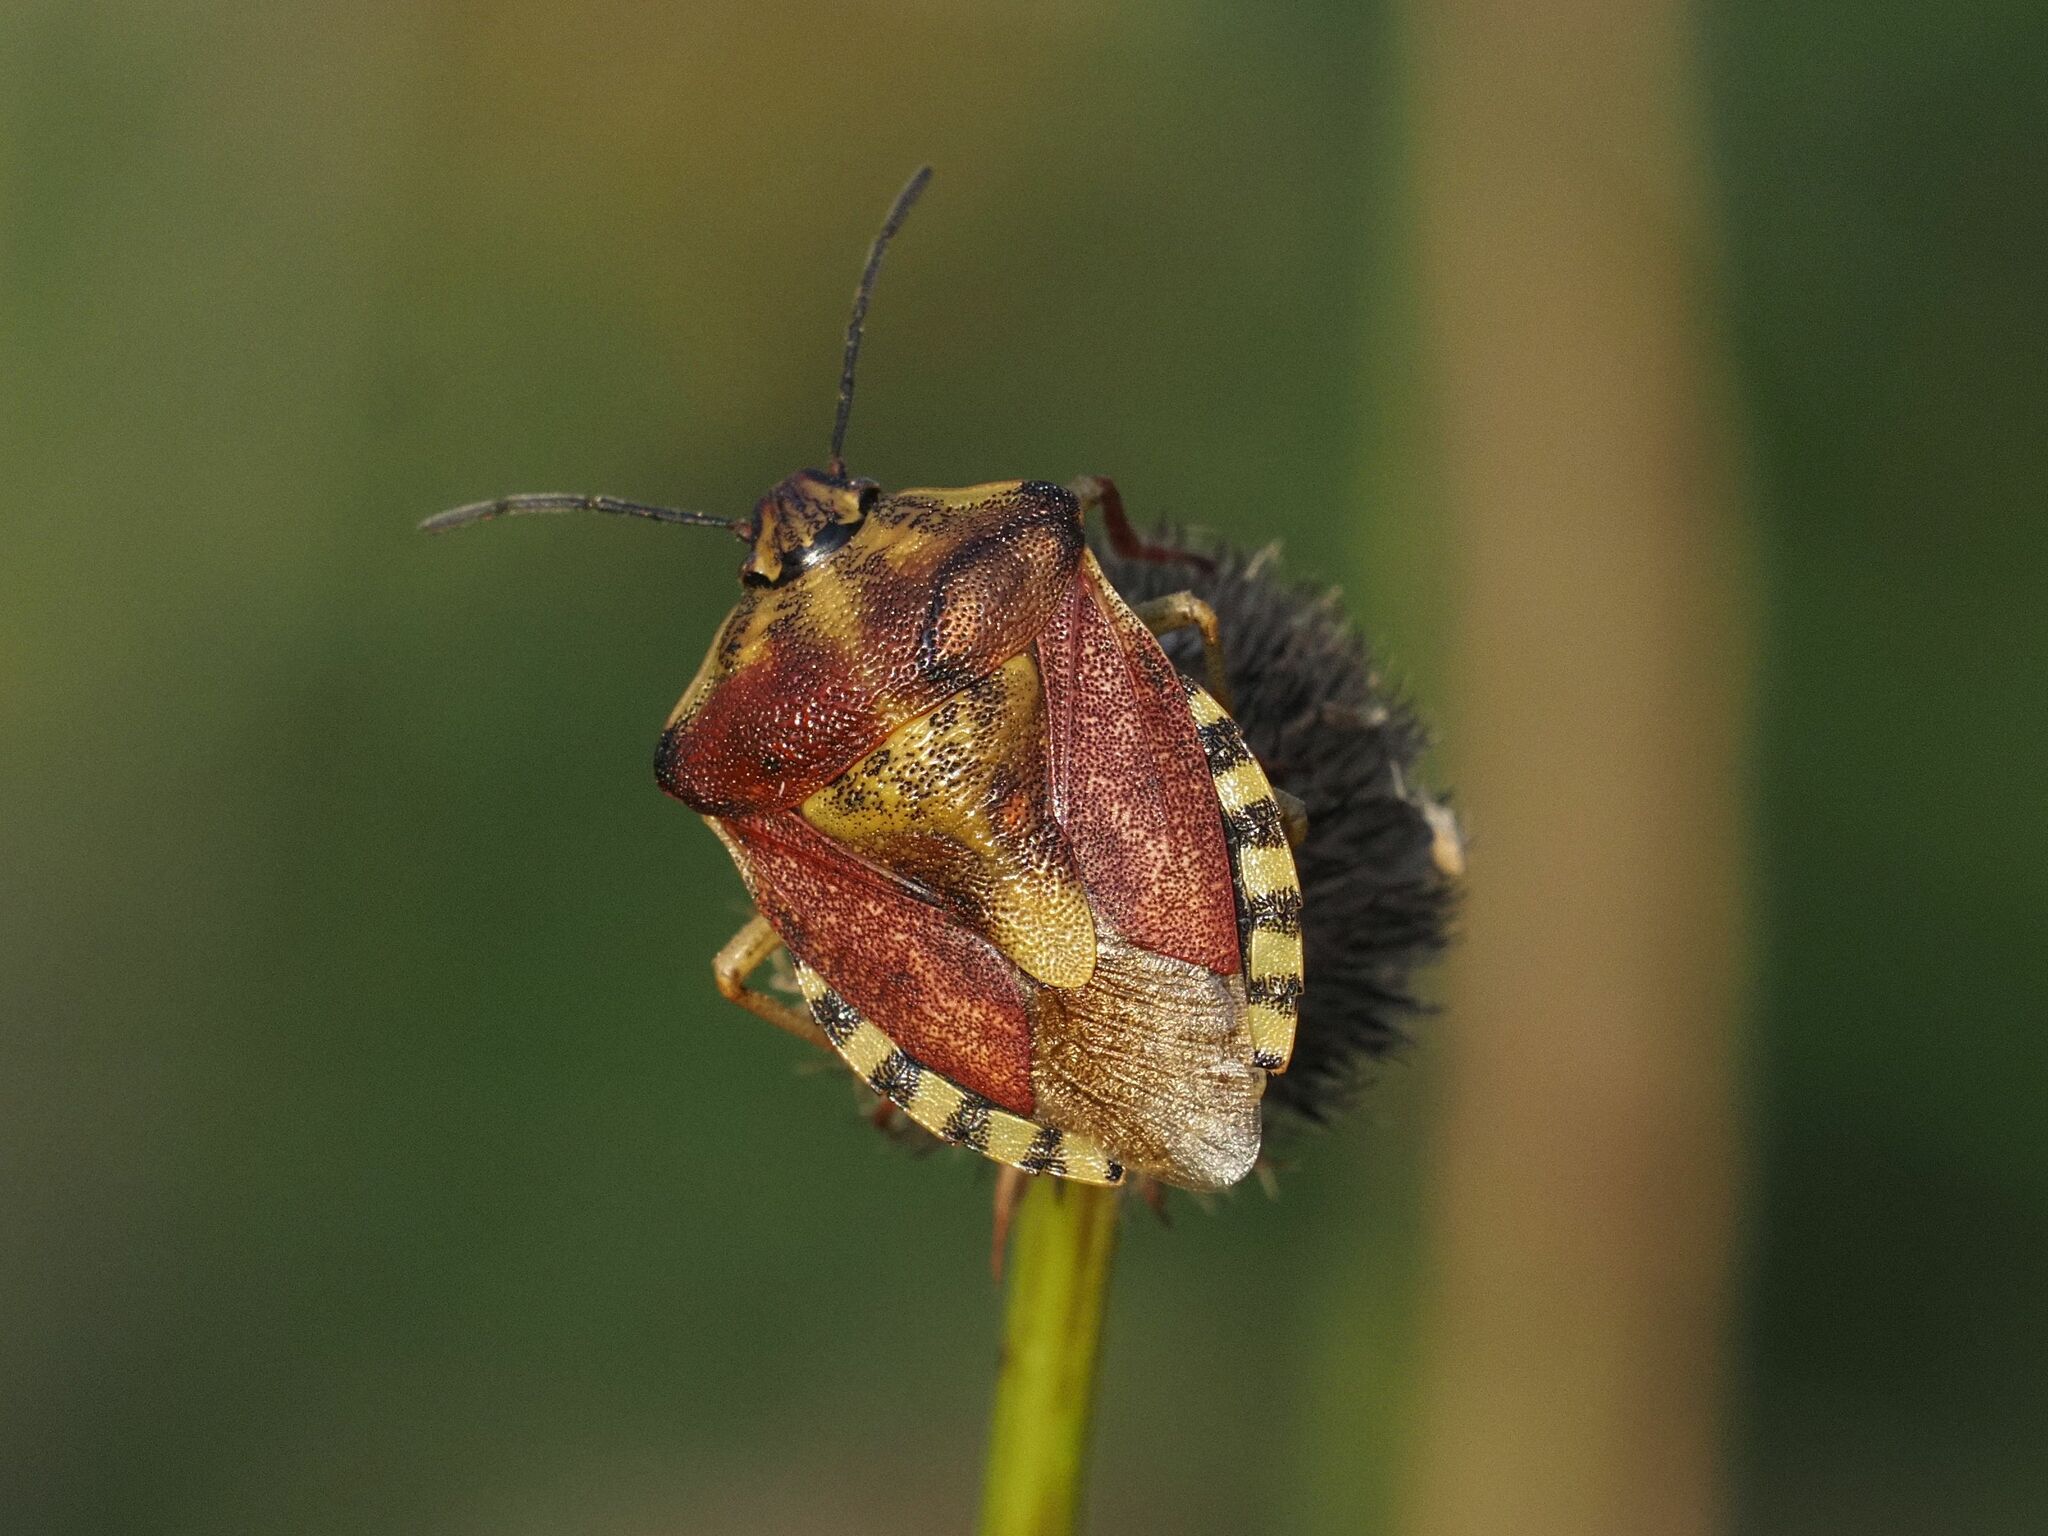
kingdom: Animalia
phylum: Arthropoda
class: Insecta
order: Hemiptera
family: Pentatomidae
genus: Carpocoris
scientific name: Carpocoris purpureipennis
